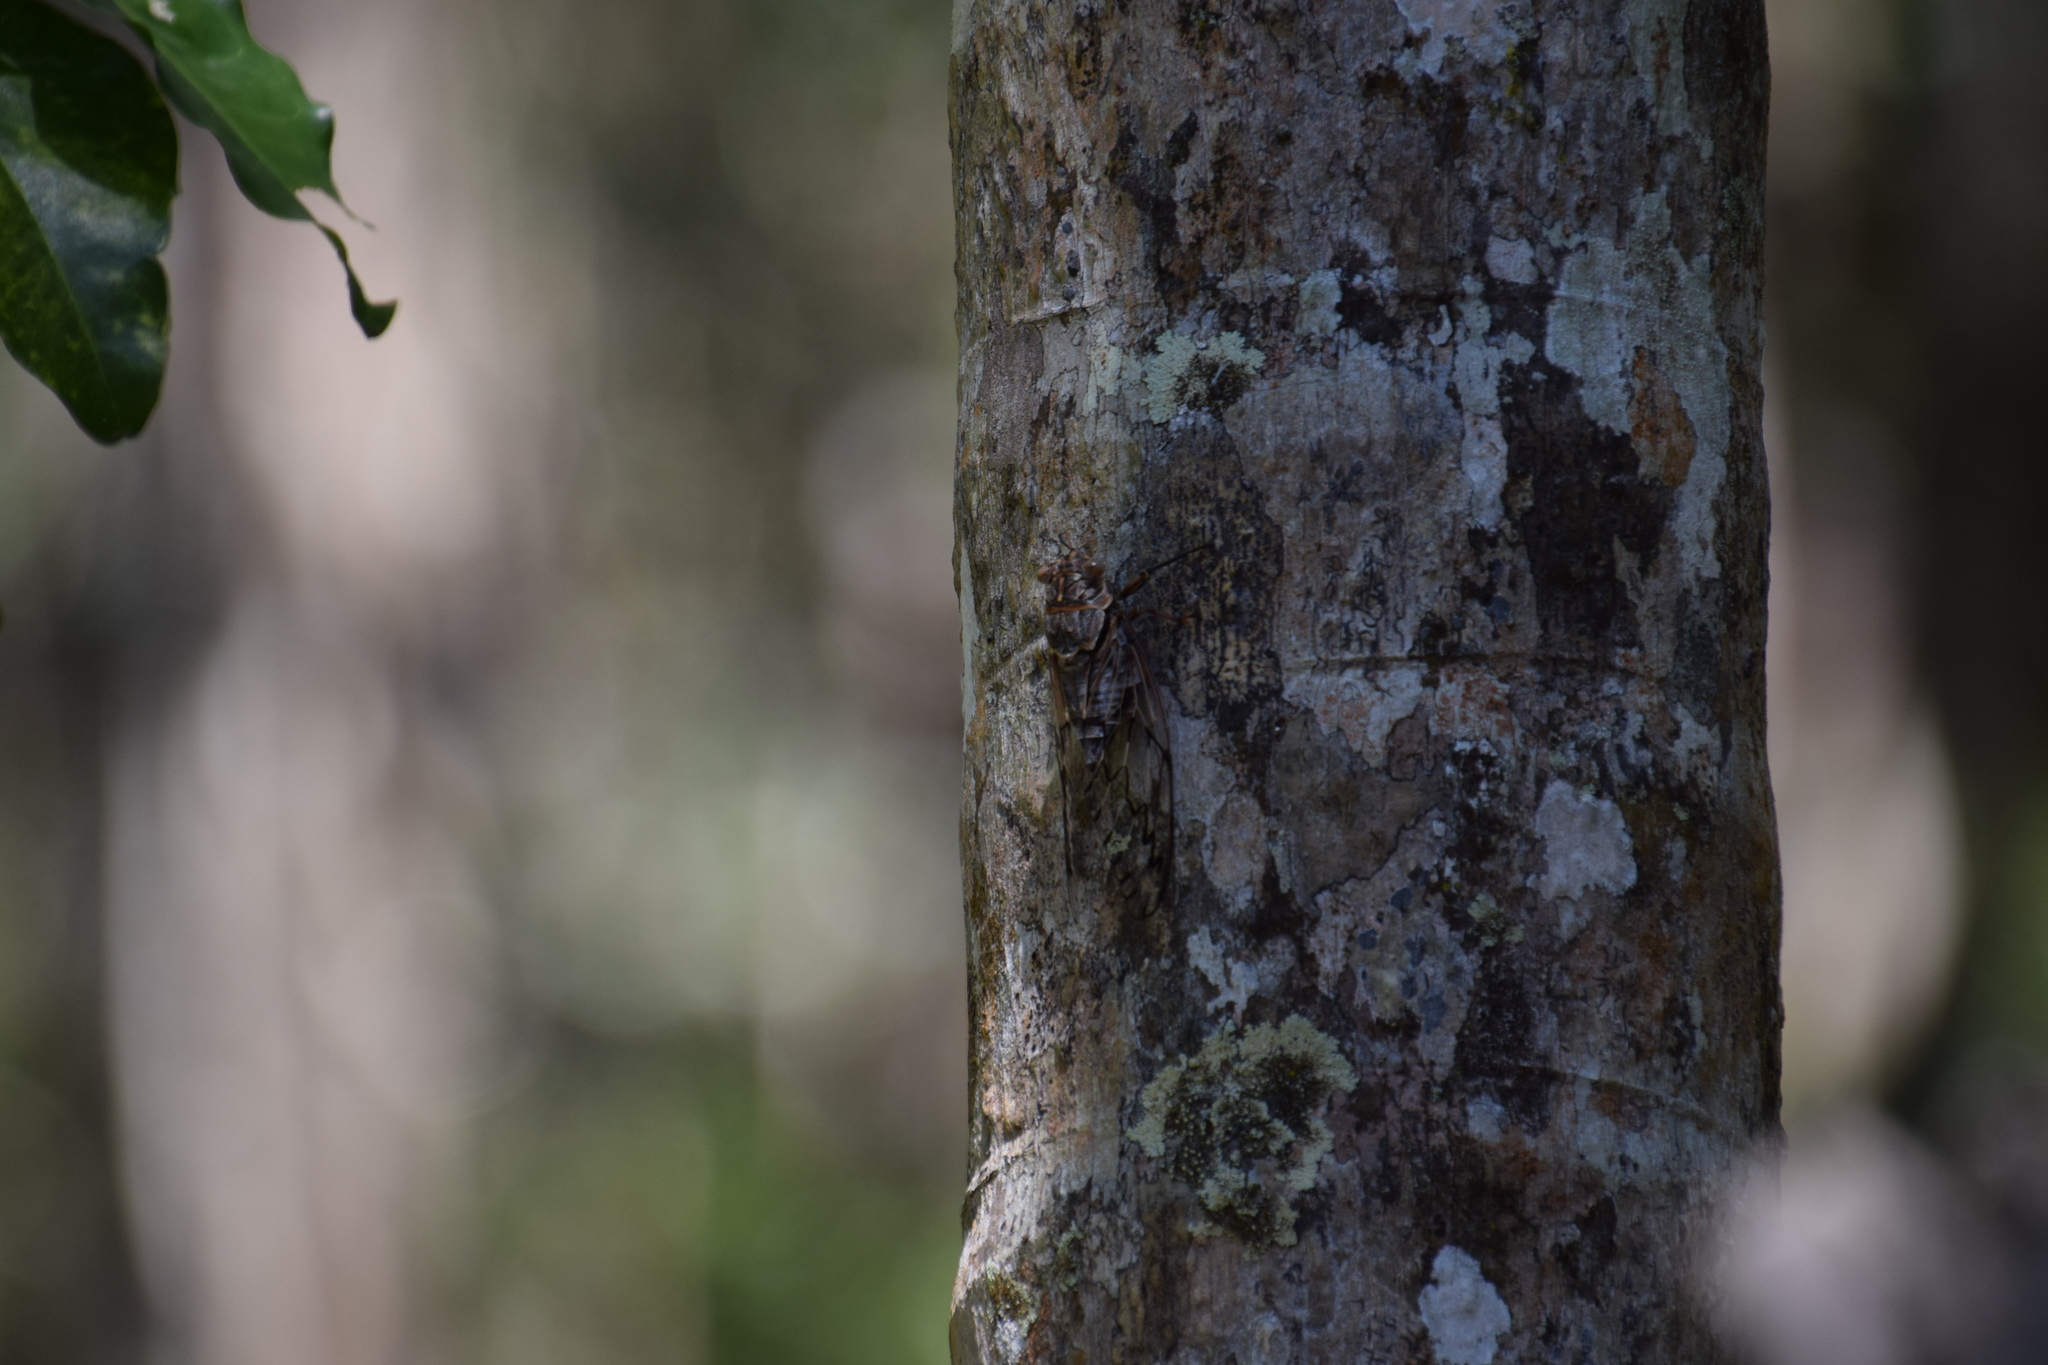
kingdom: Animalia
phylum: Arthropoda
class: Insecta
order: Hemiptera
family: Cicadidae
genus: Henicopsaltria
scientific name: Henicopsaltria eydouxii
